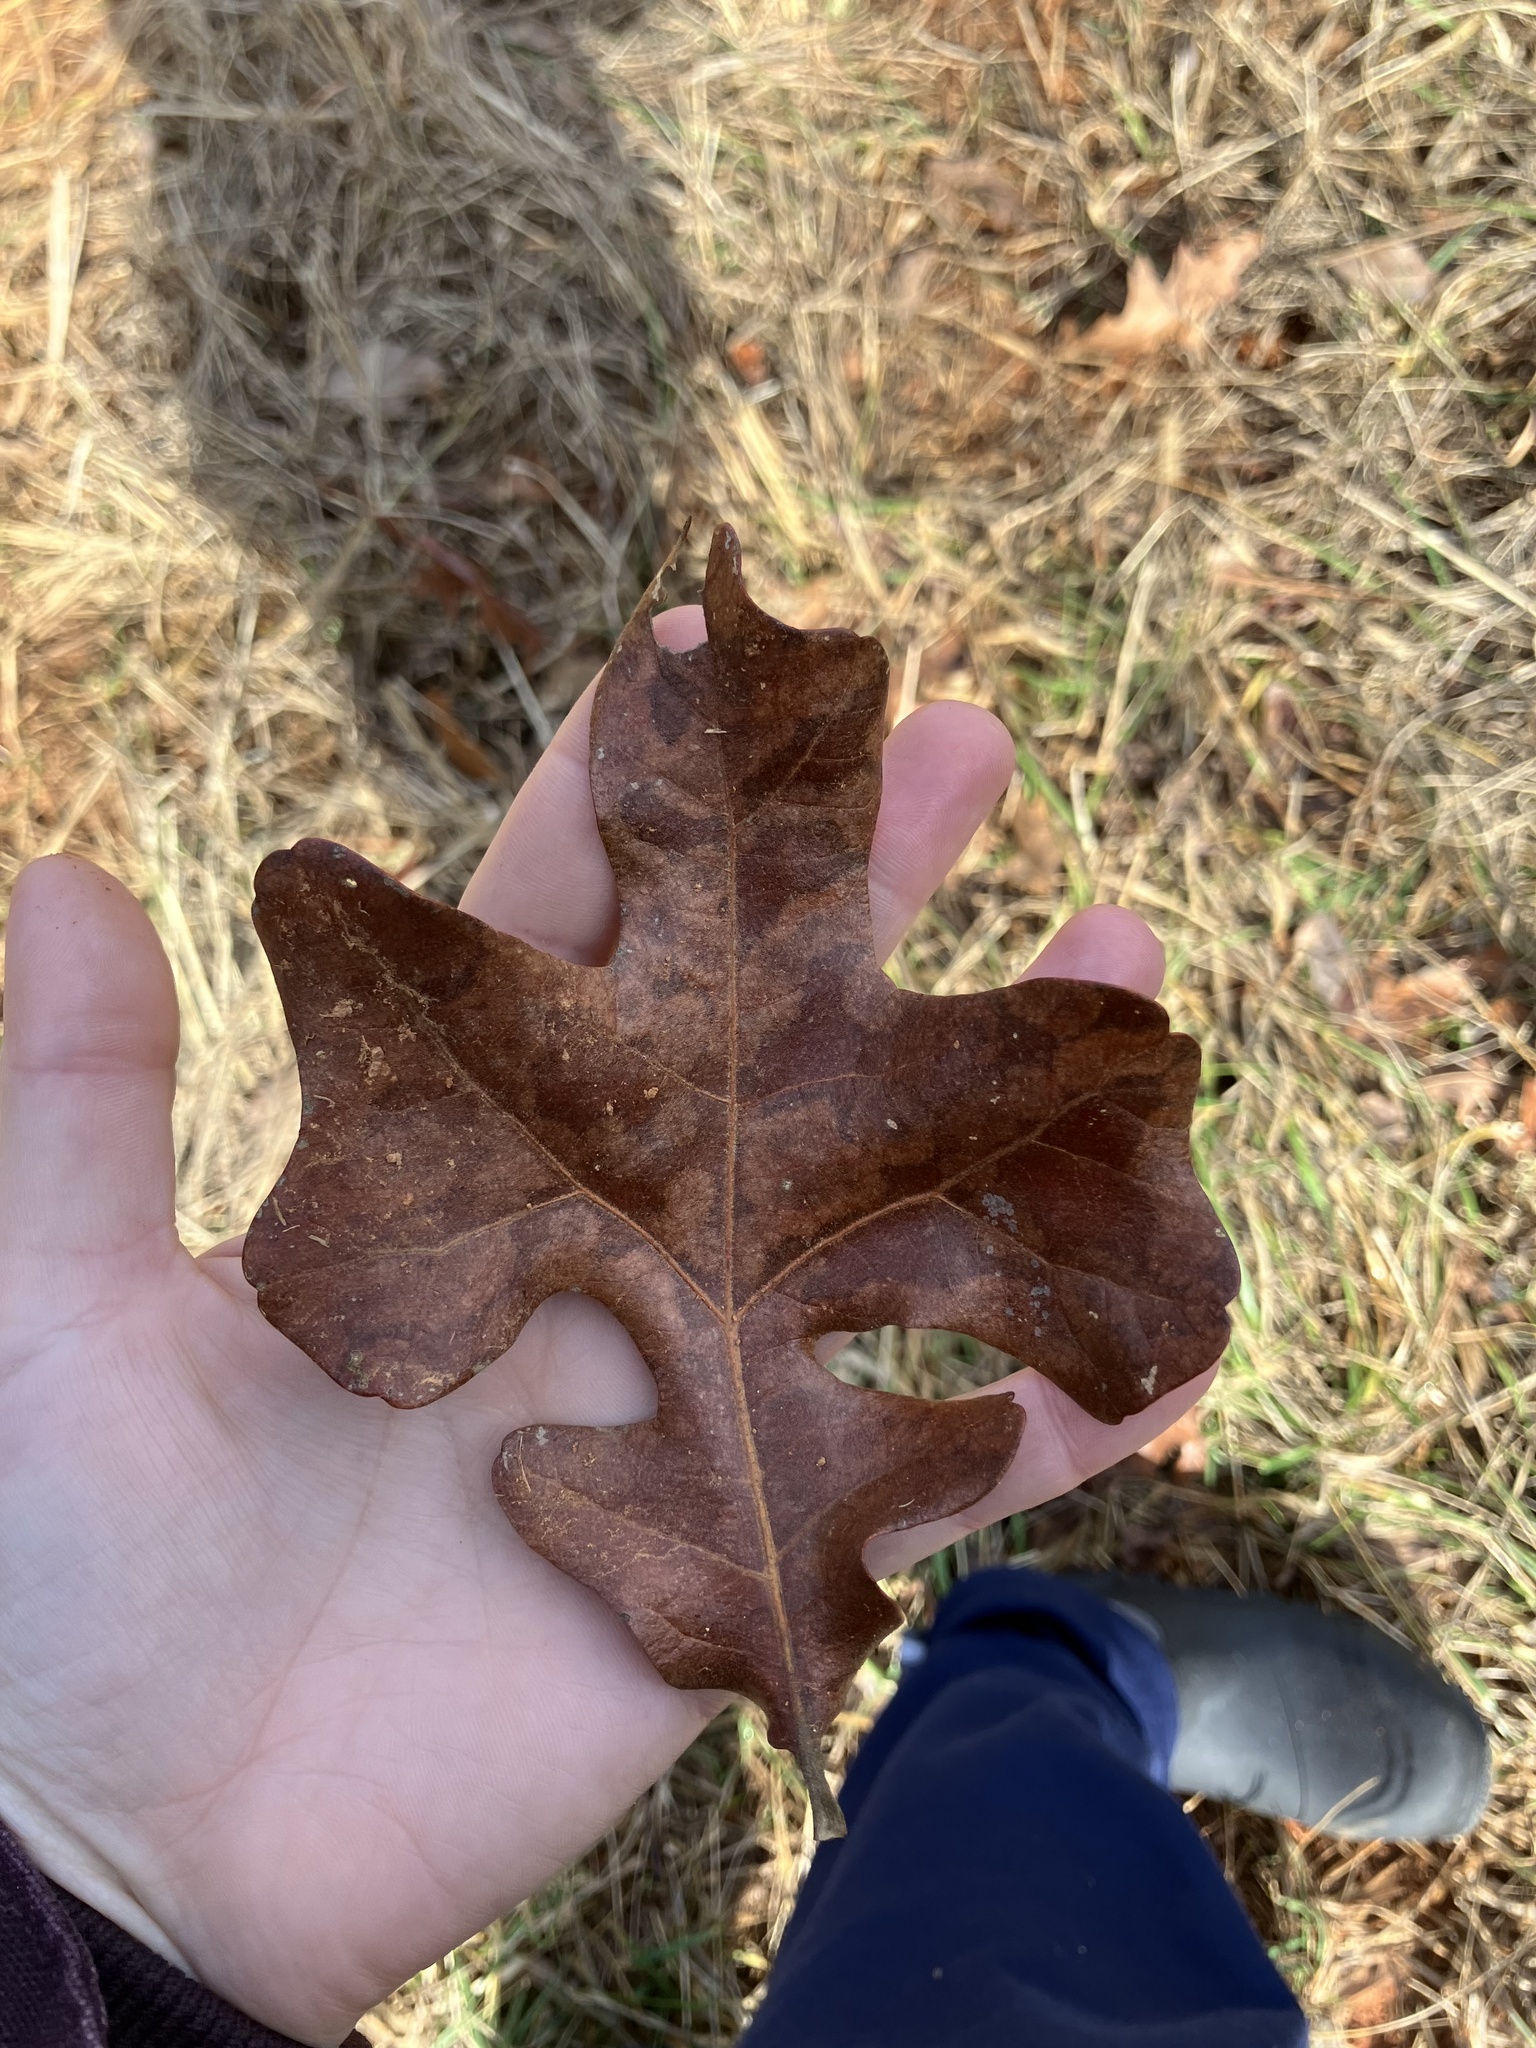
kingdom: Plantae
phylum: Tracheophyta
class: Magnoliopsida
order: Fagales
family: Fagaceae
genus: Quercus
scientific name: Quercus stellata
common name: Post oak
